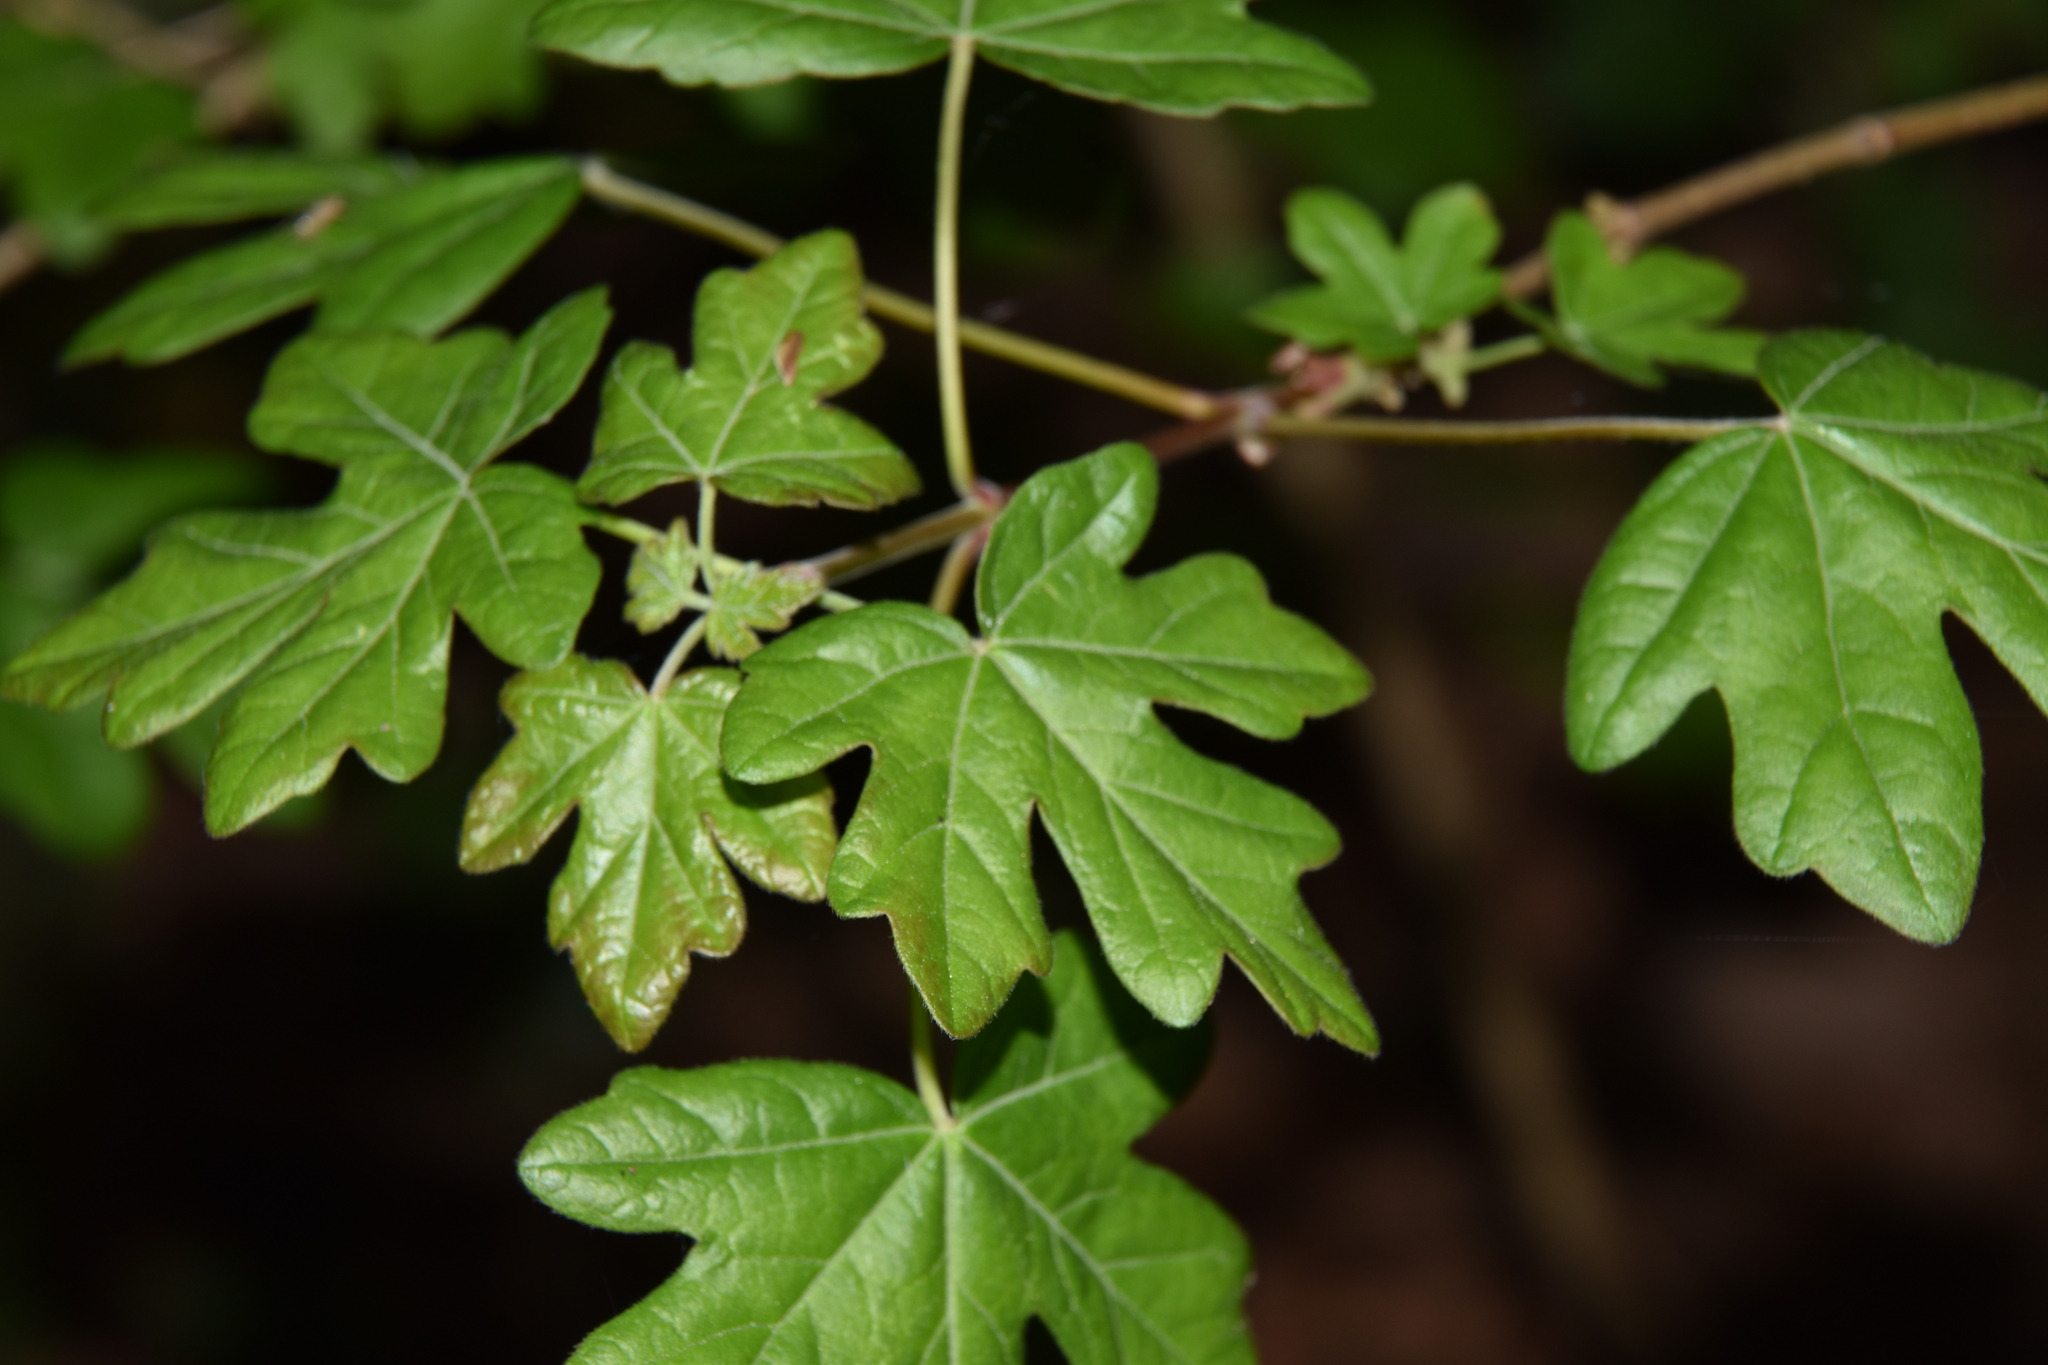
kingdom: Plantae
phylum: Tracheophyta
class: Magnoliopsida
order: Sapindales
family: Sapindaceae
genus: Acer
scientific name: Acer campestre
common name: Field maple
